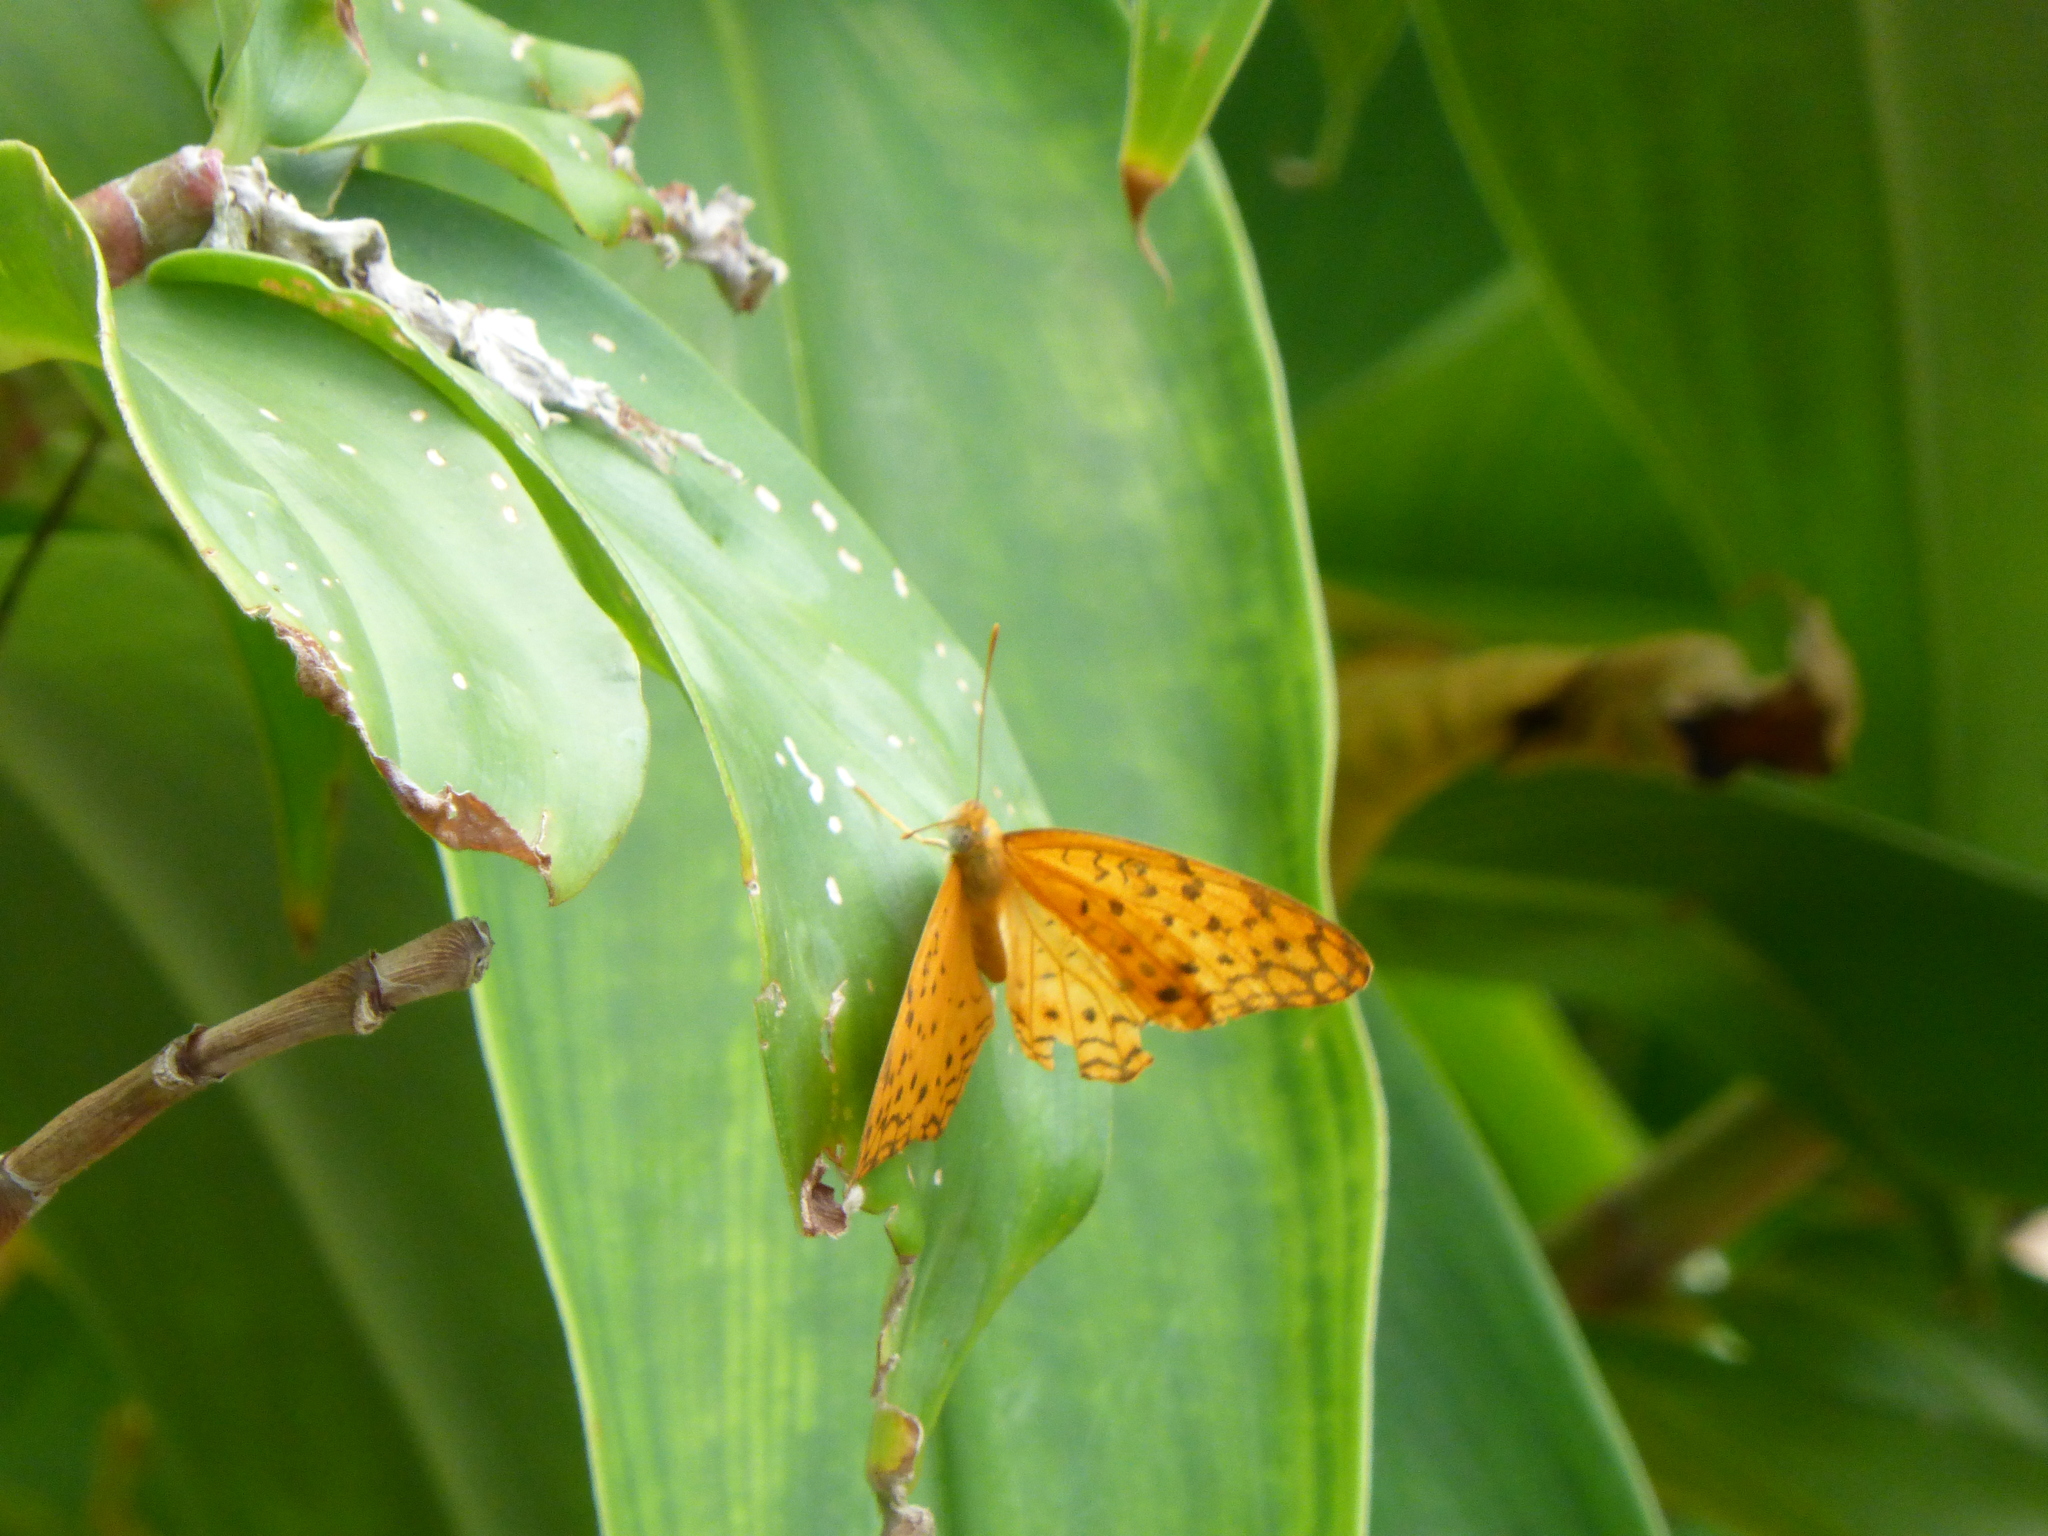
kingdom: Animalia
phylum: Arthropoda
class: Insecta
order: Lepidoptera
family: Nymphalidae
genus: Phalanta
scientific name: Phalanta phalantha
